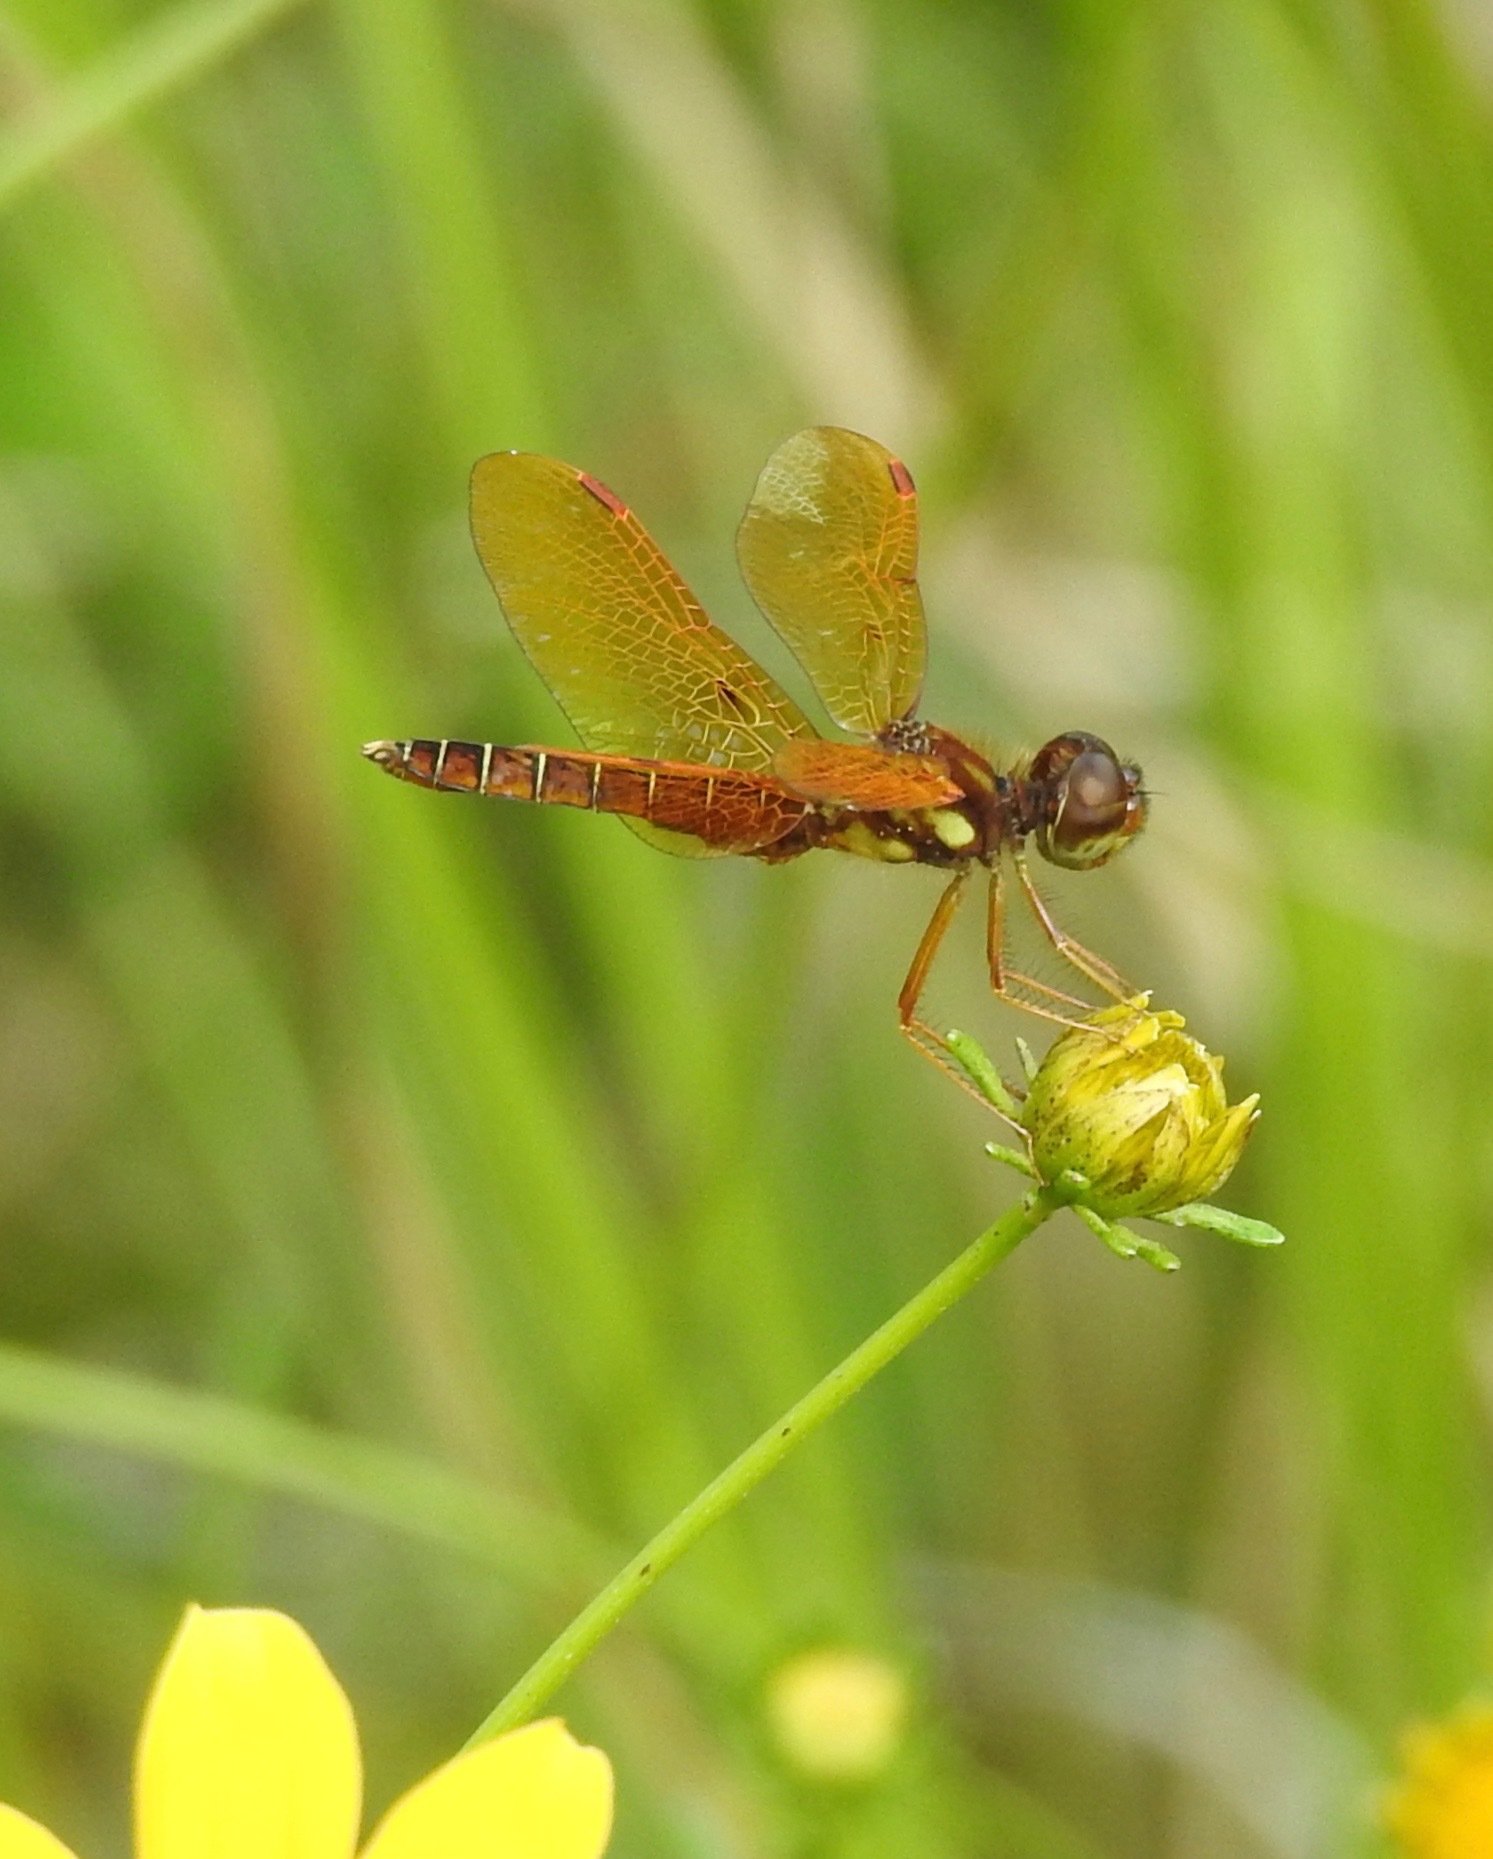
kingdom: Animalia
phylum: Arthropoda
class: Insecta
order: Odonata
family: Libellulidae
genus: Perithemis
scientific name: Perithemis tenera
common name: Eastern amberwing
